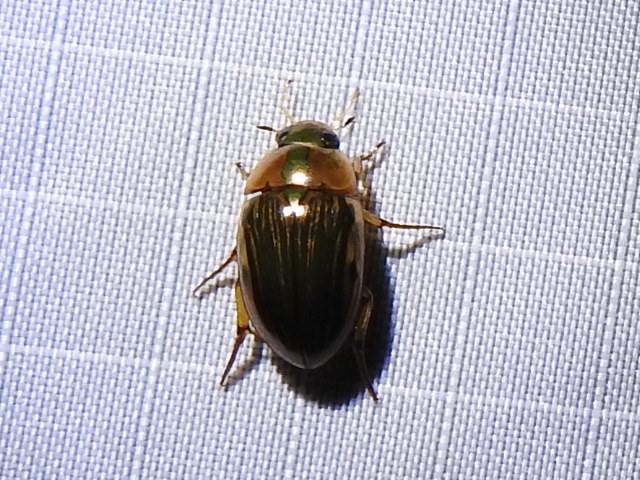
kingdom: Animalia
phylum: Arthropoda
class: Insecta
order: Coleoptera
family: Hydrophilidae
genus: Tropisternus
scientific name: Tropisternus collaris
